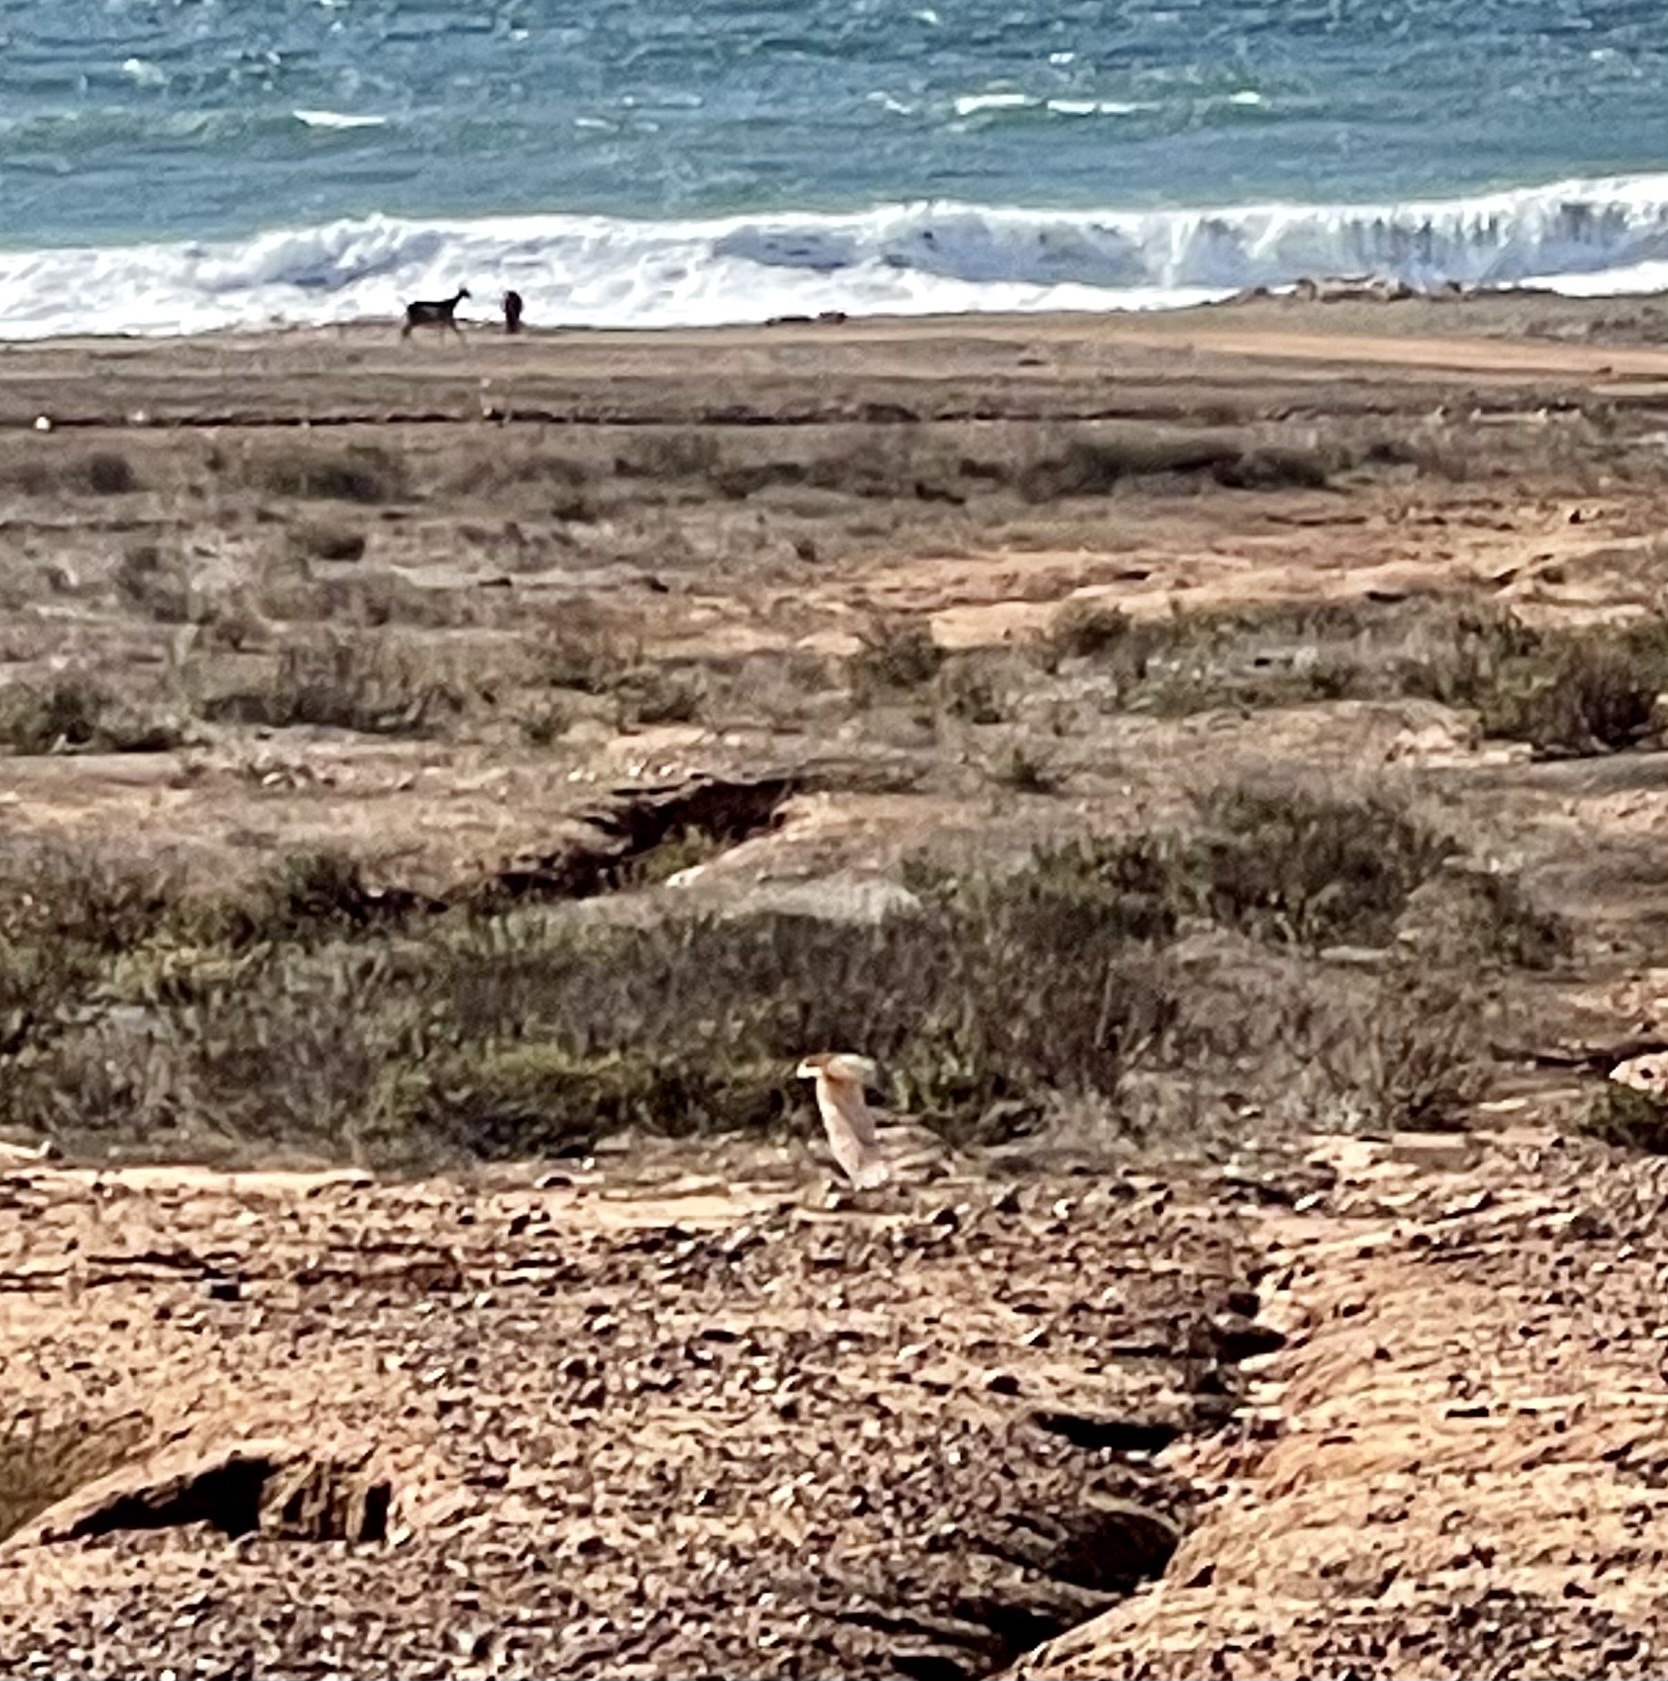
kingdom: Animalia
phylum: Chordata
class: Aves
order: Strigiformes
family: Strigidae
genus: Athene
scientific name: Athene cunicularia
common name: Burrowing owl
